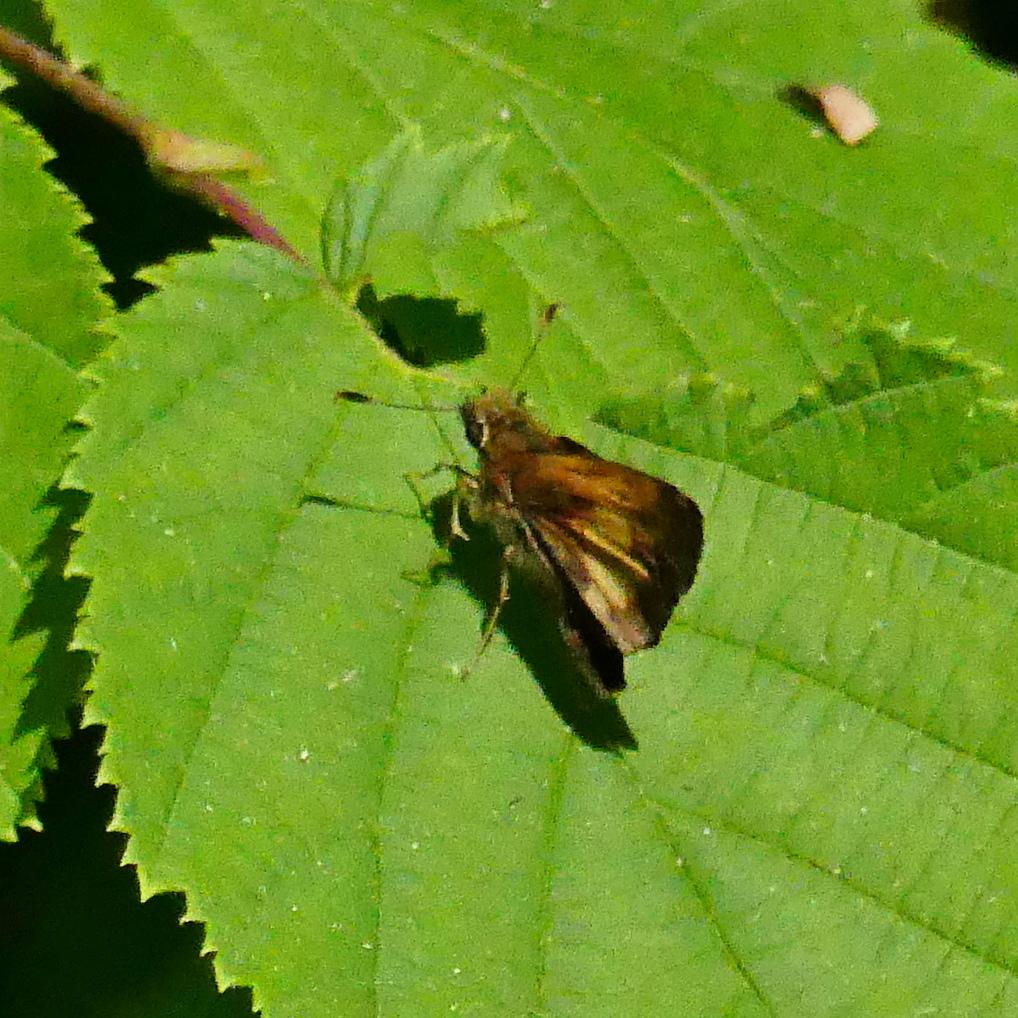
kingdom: Animalia
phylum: Arthropoda
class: Insecta
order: Lepidoptera
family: Hesperiidae
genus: Lon
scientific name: Lon hobomok
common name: Hobomok skipper
